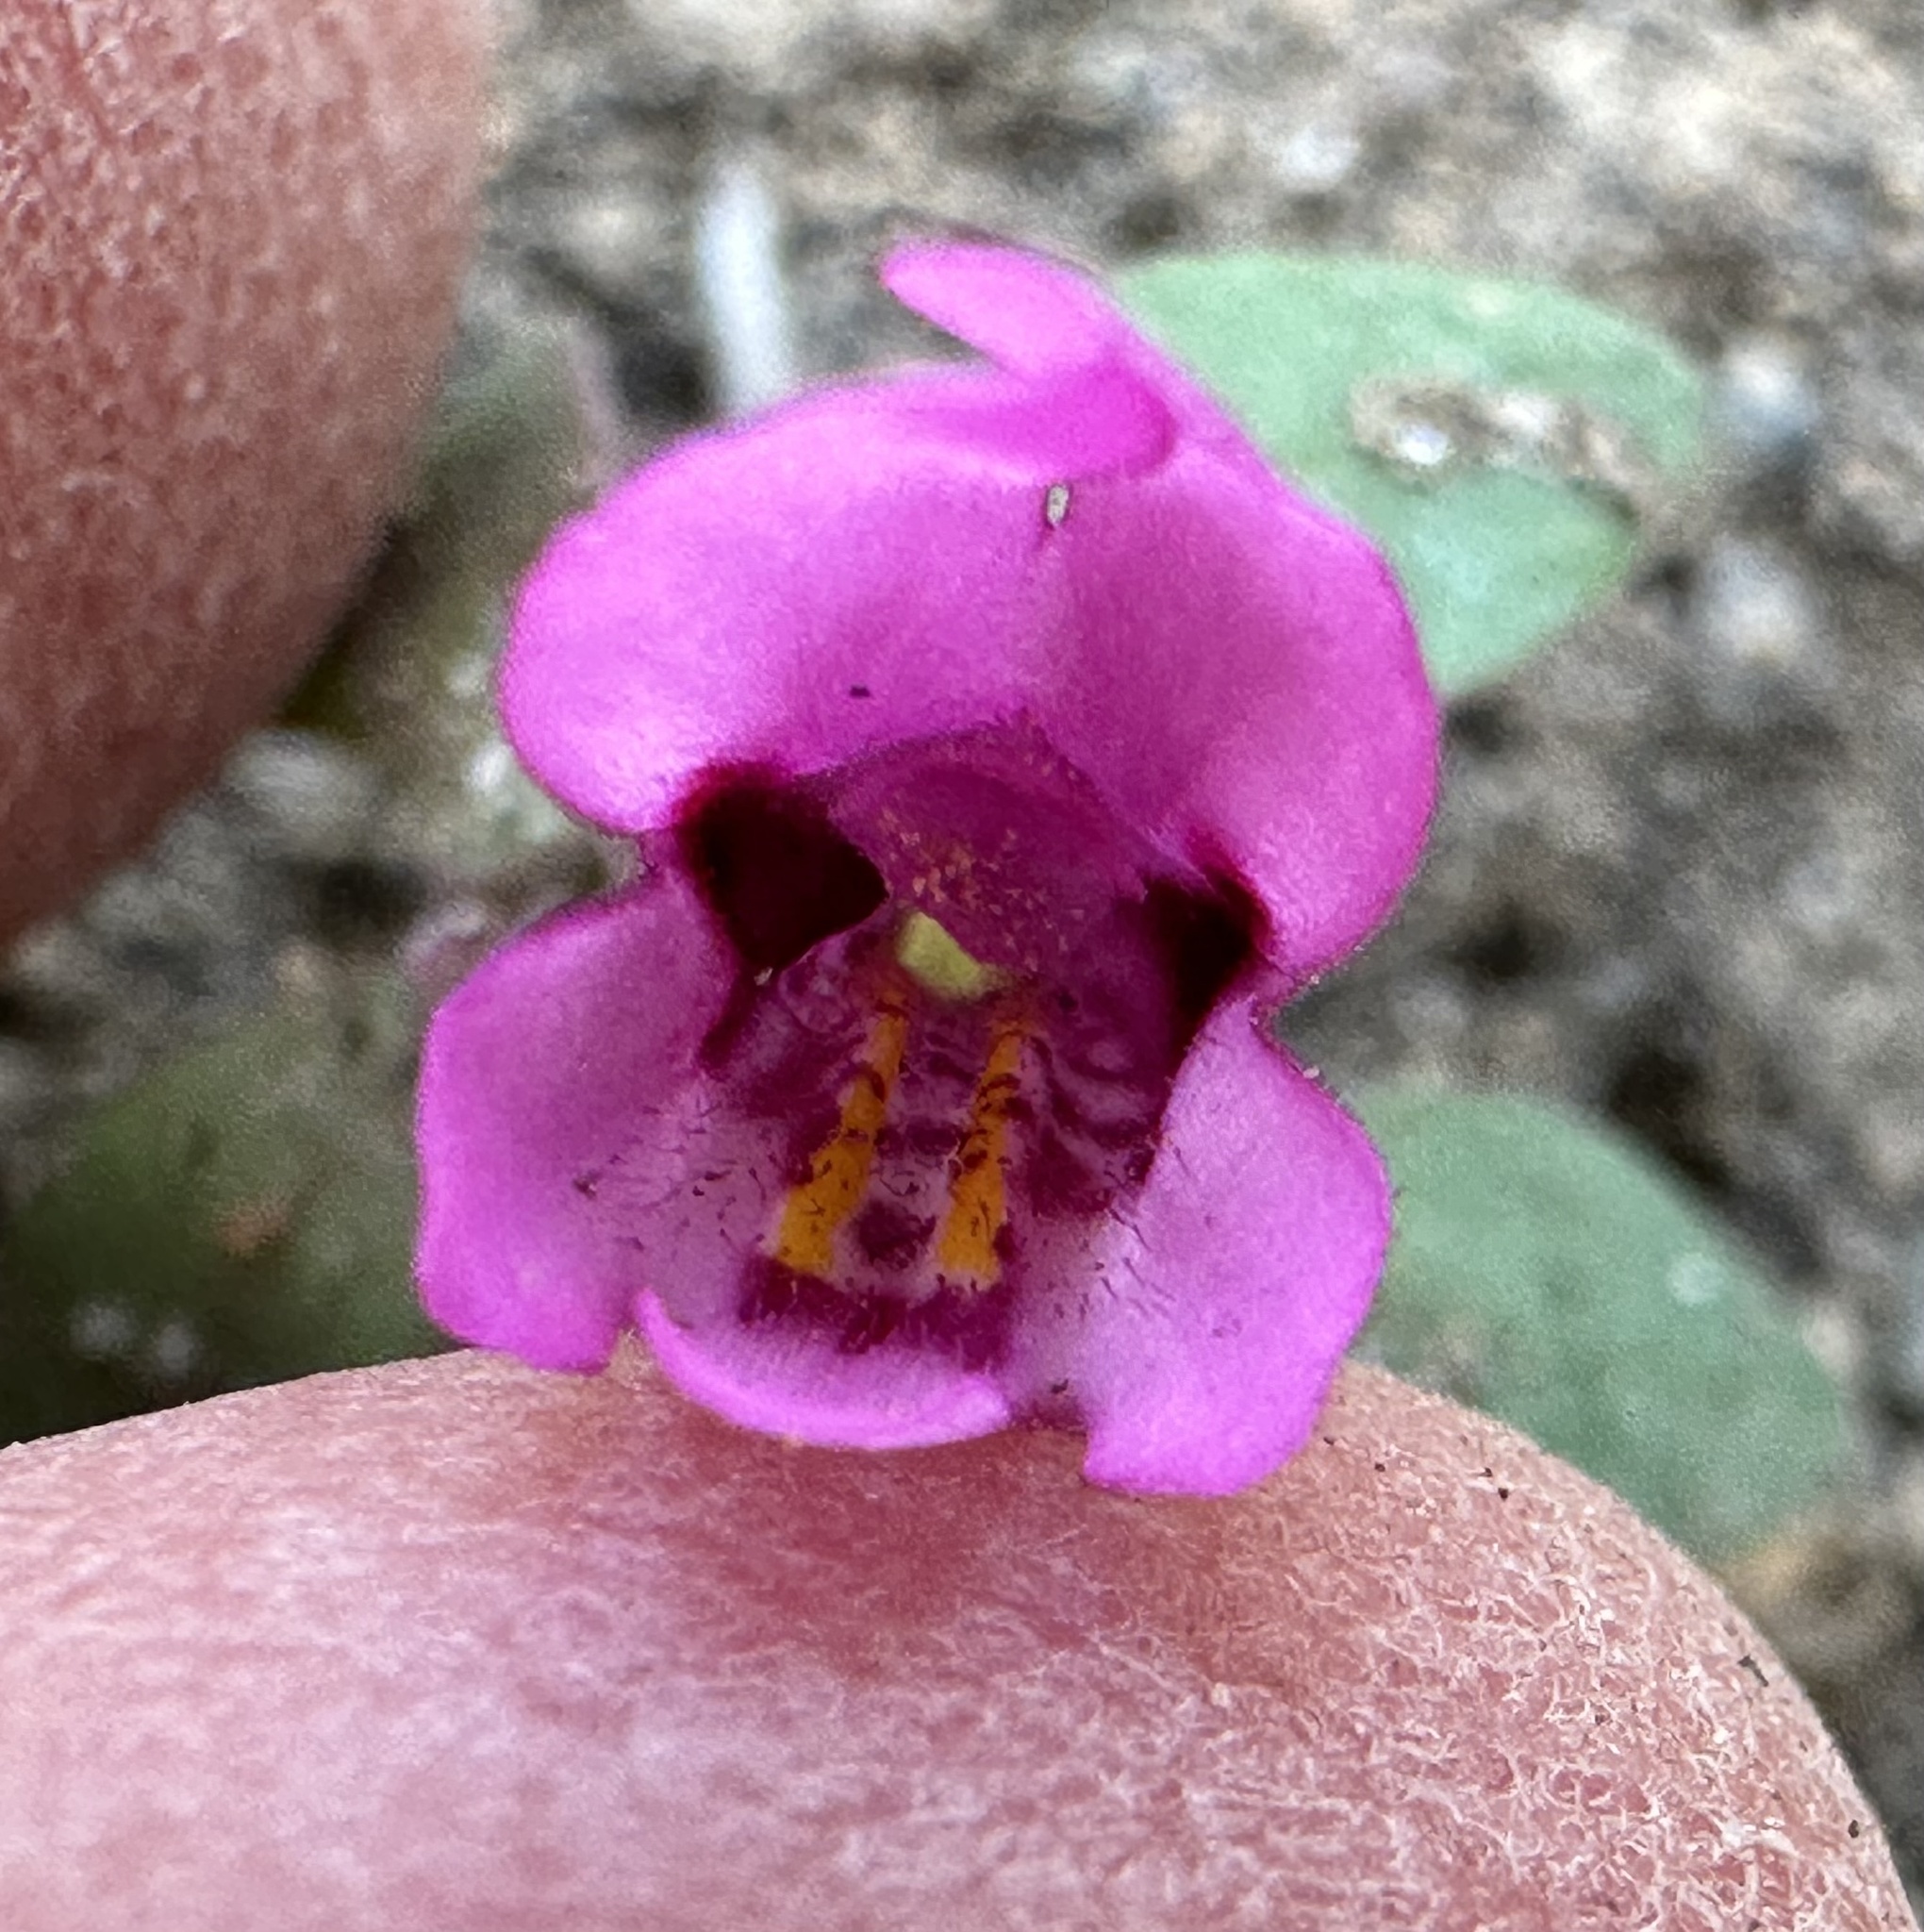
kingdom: Plantae
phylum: Tracheophyta
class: Magnoliopsida
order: Lamiales
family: Phrymaceae
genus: Diplacus
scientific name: Diplacus nanus
